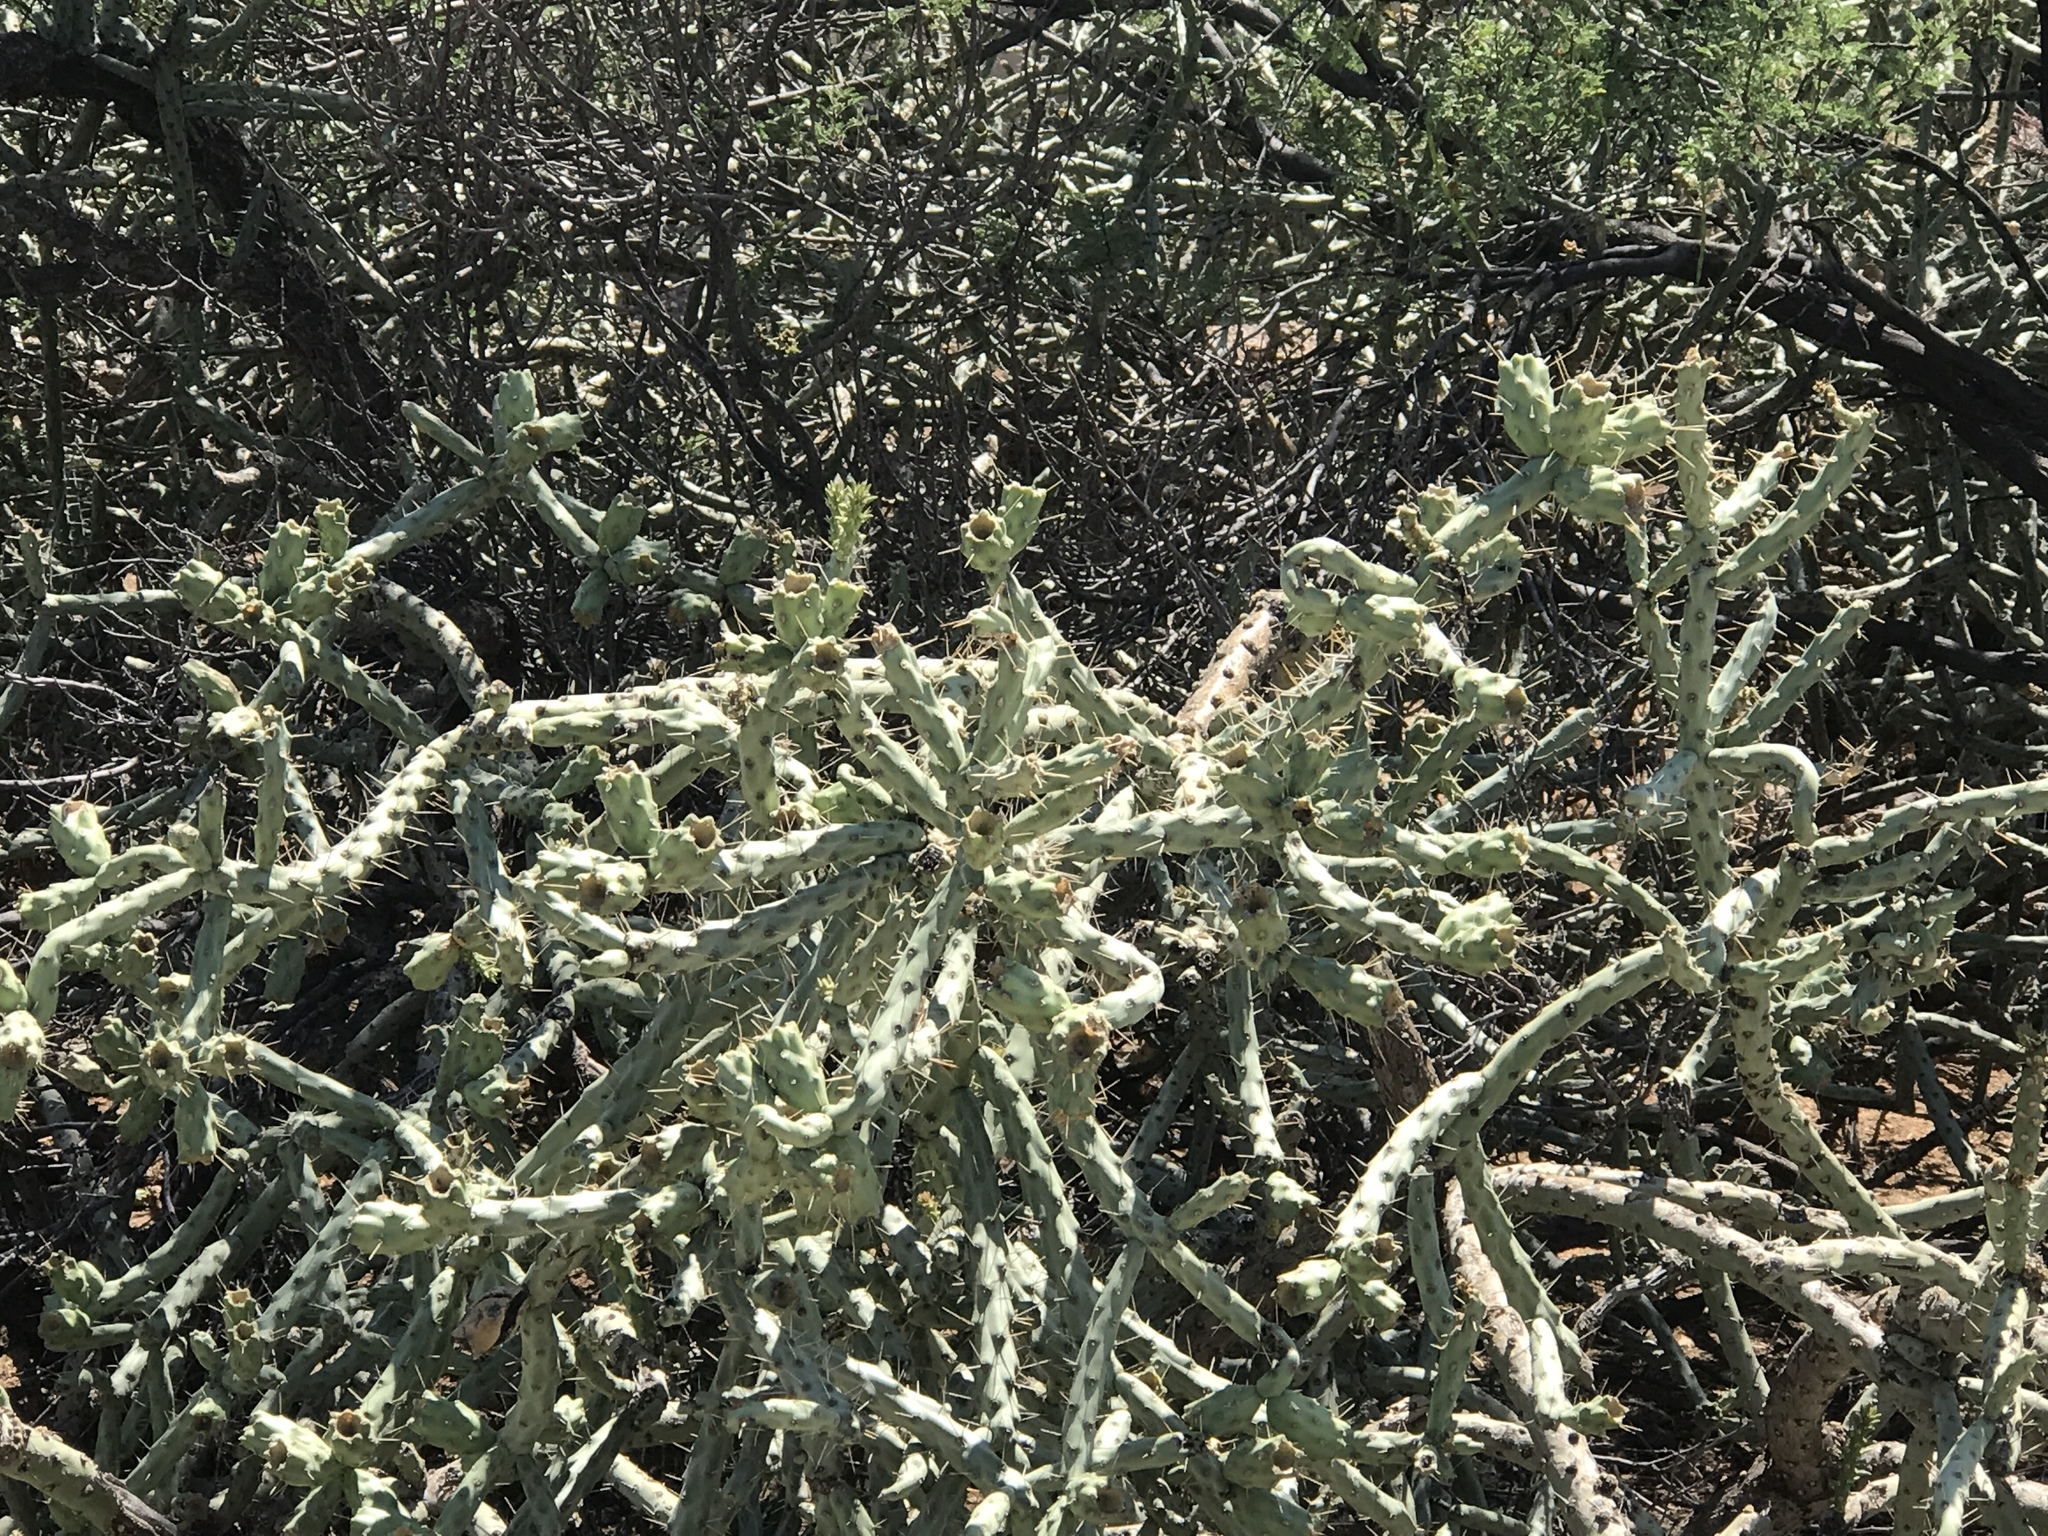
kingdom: Plantae
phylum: Tracheophyta
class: Magnoliopsida
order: Caryophyllales
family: Cactaceae
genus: Cylindropuntia
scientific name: Cylindropuntia arbuscula
